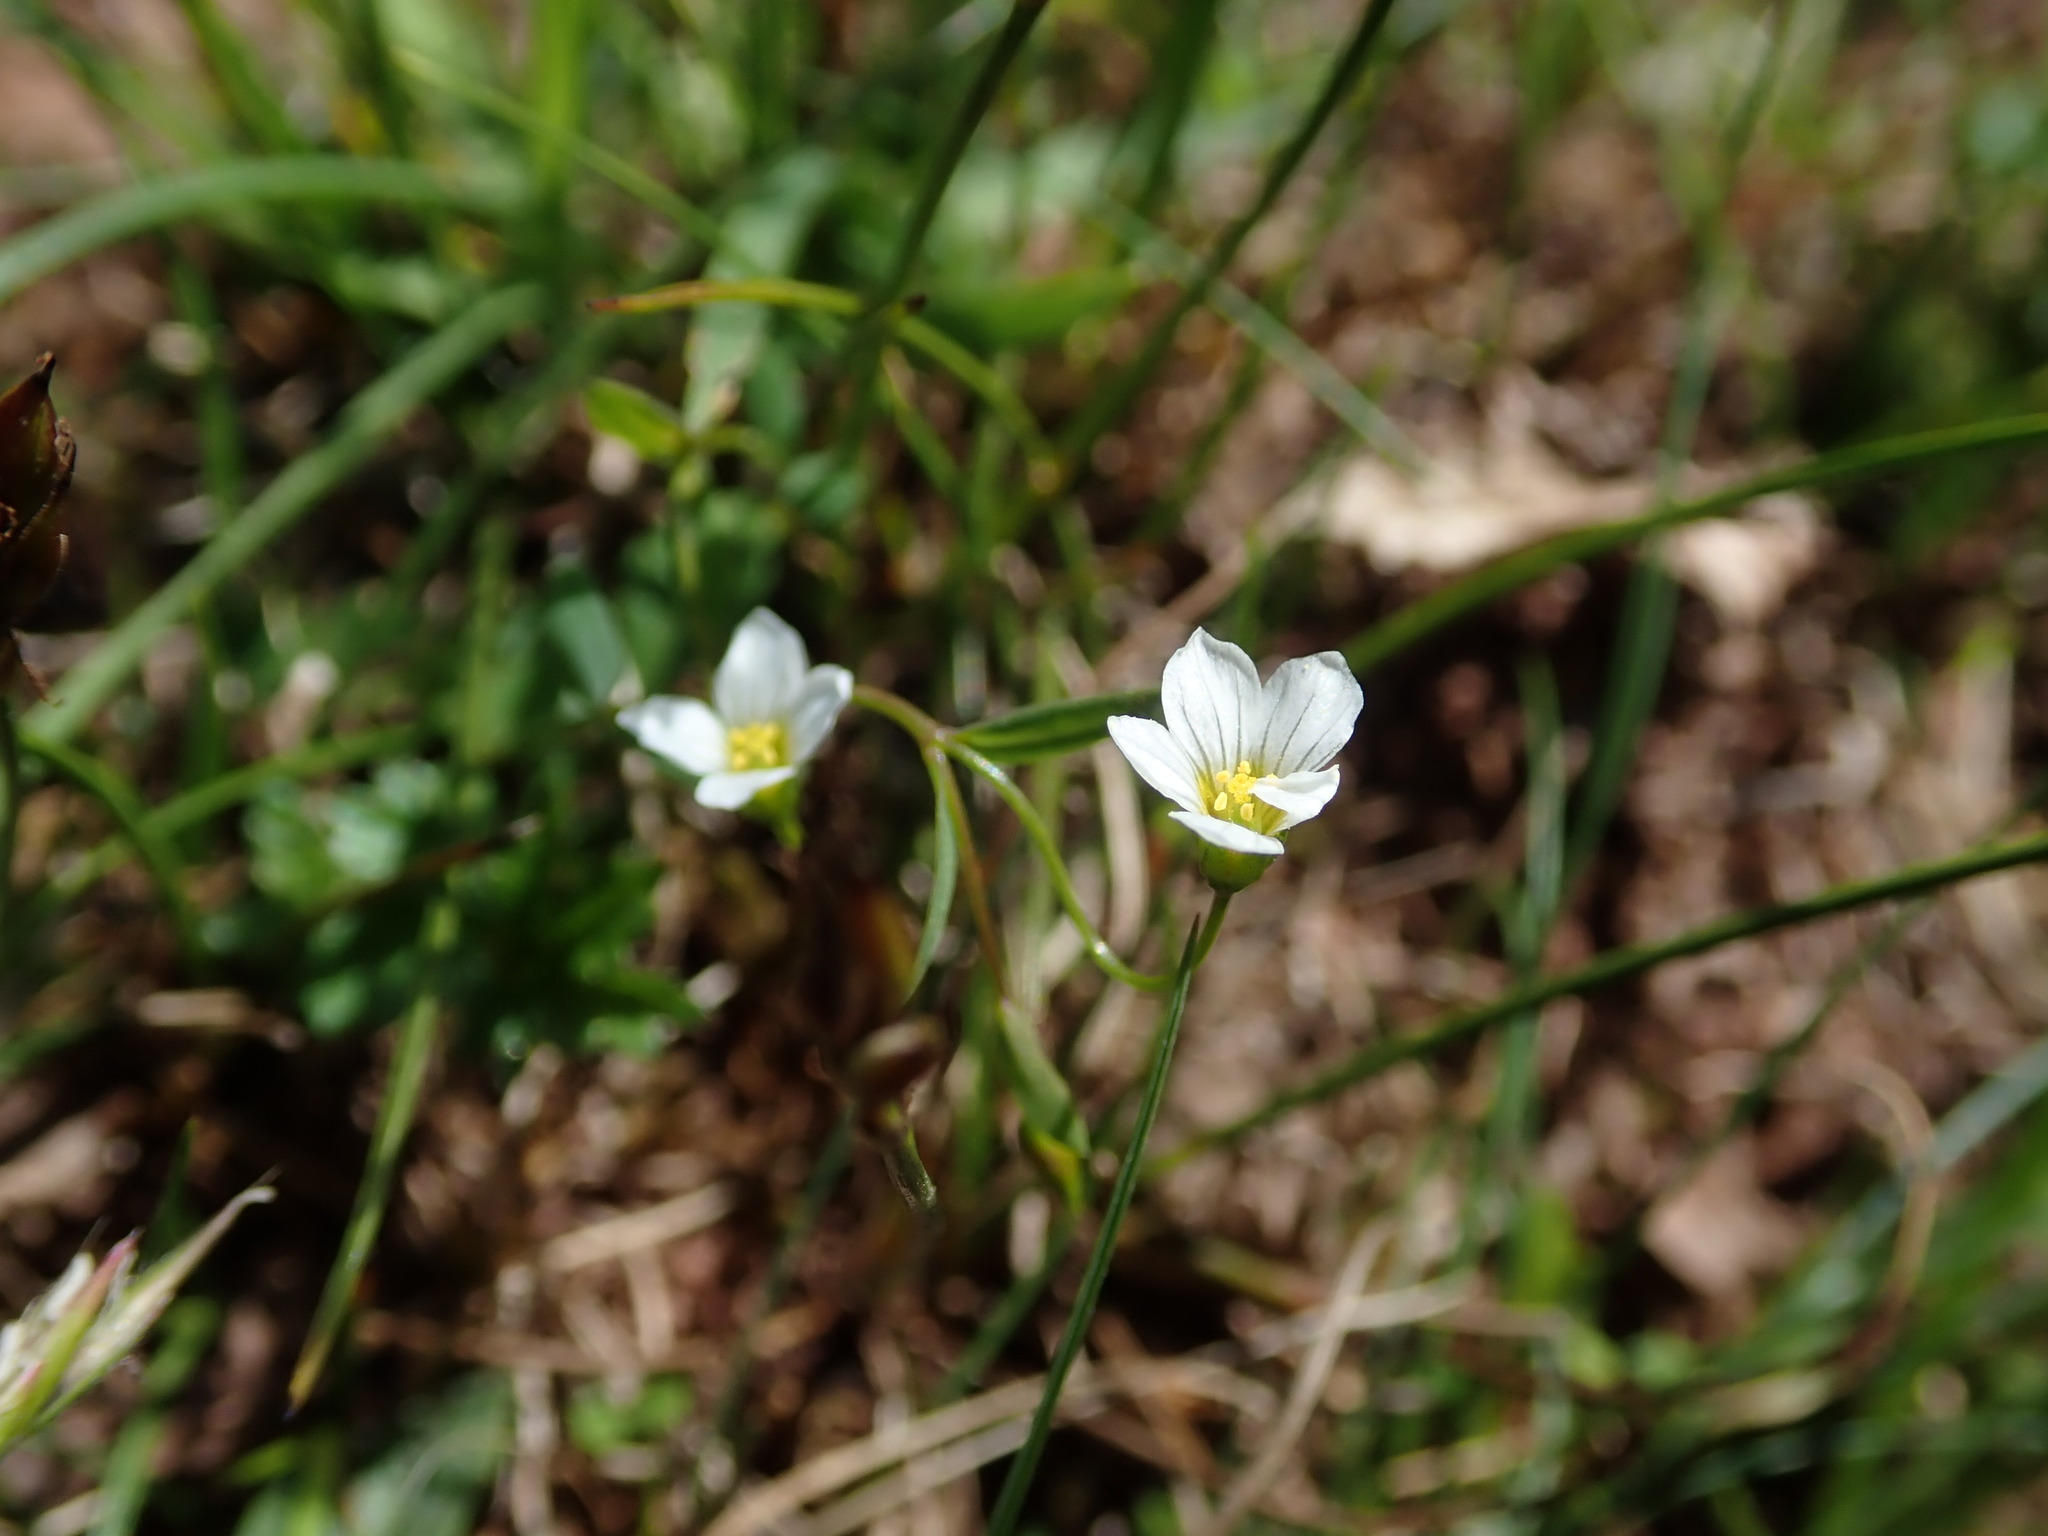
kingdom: Plantae
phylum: Tracheophyta
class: Magnoliopsida
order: Malpighiales
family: Linaceae
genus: Linum
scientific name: Linum catharticum
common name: Fairy flax
